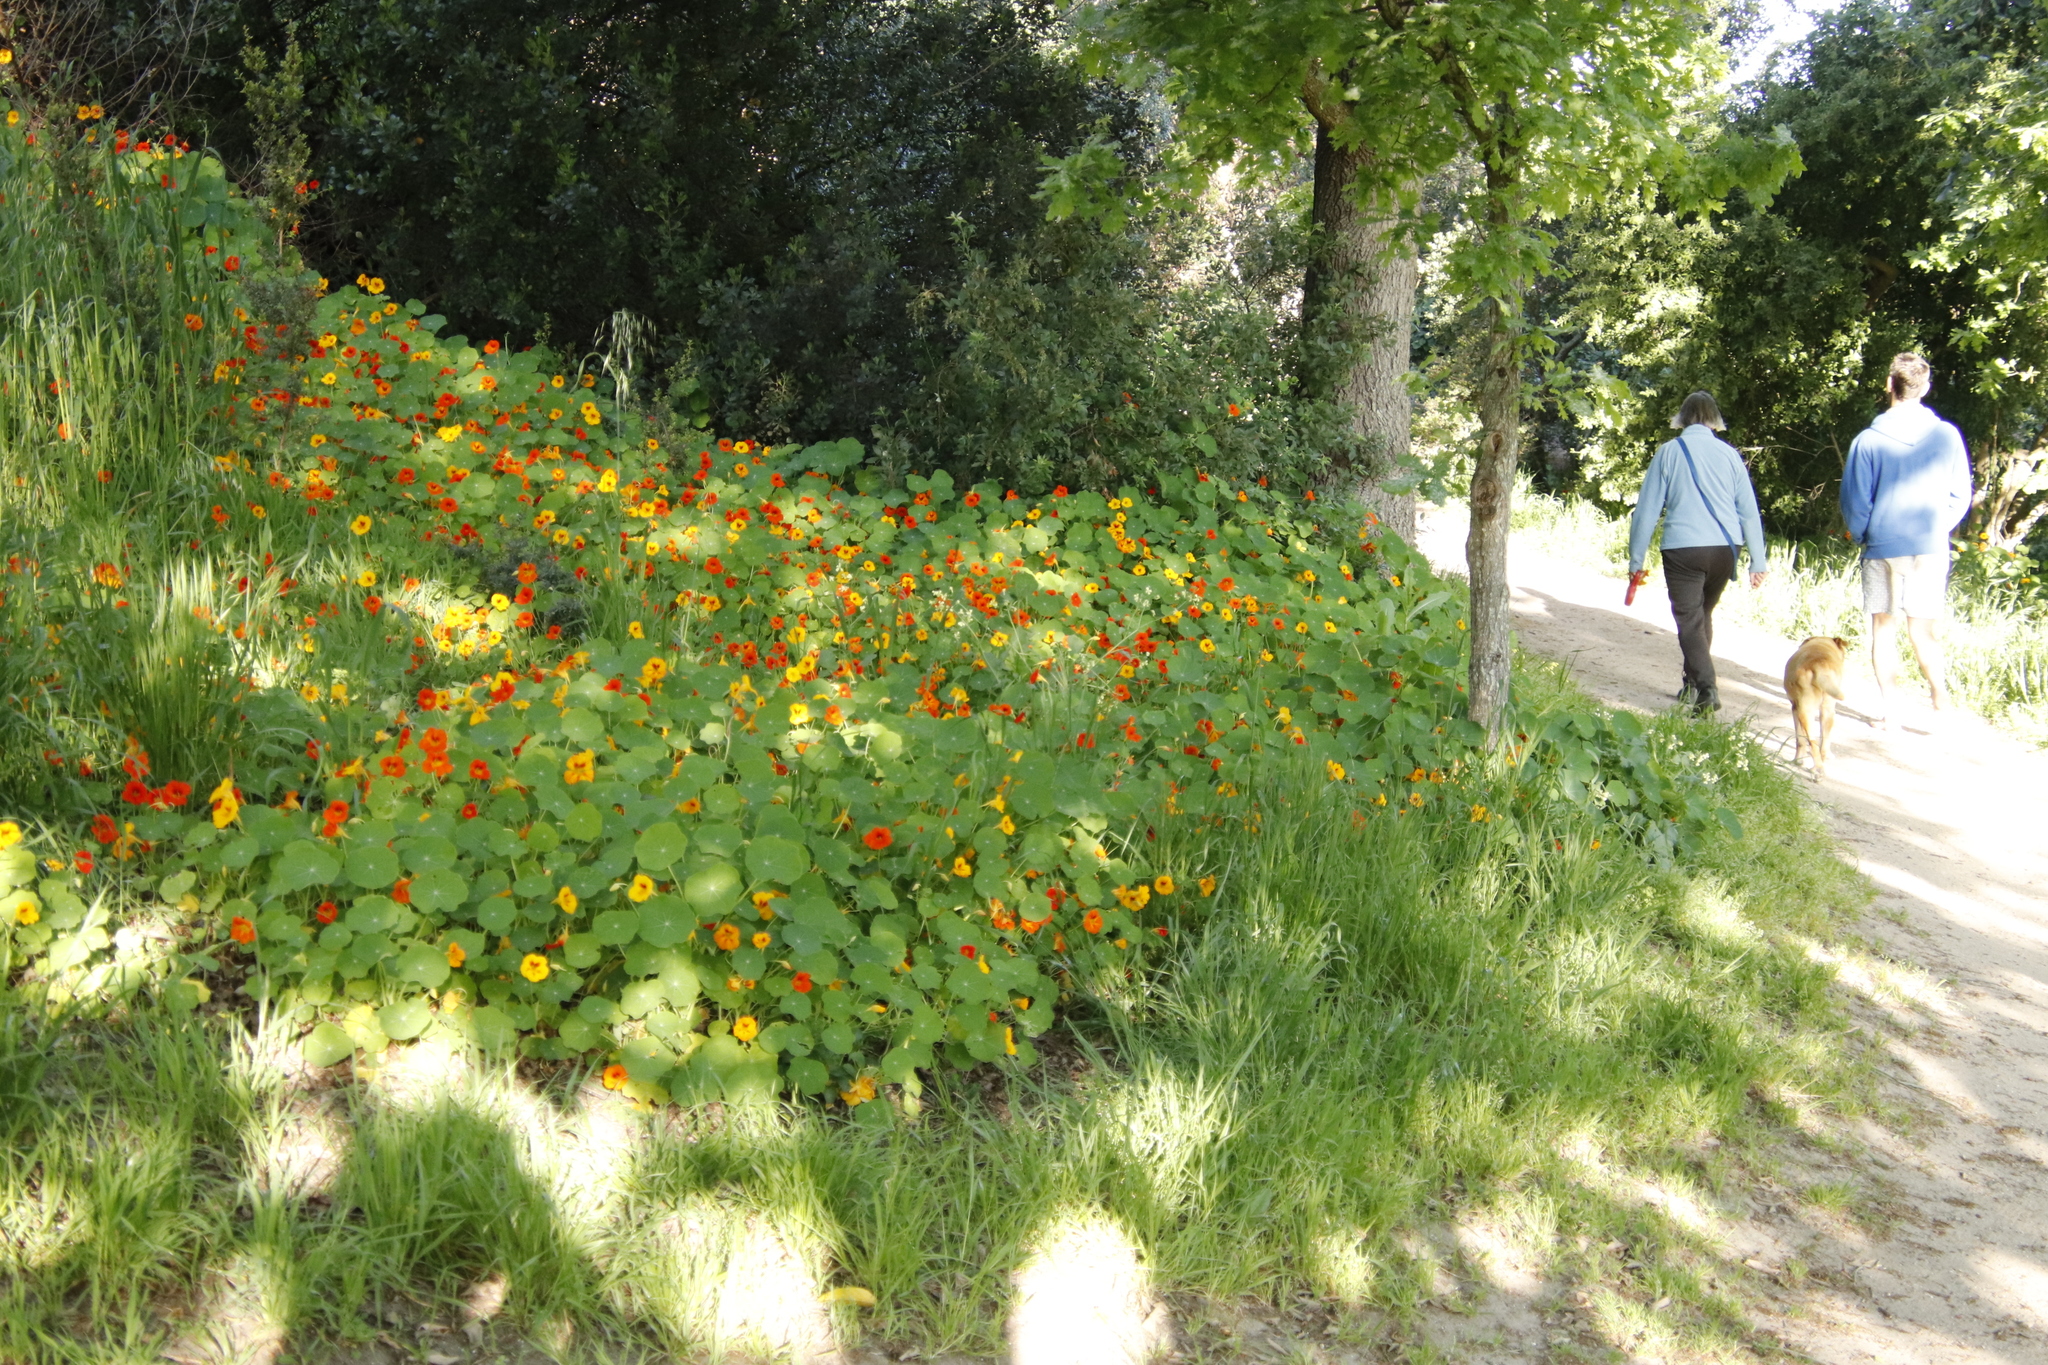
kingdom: Plantae
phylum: Tracheophyta
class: Magnoliopsida
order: Brassicales
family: Tropaeolaceae
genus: Tropaeolum
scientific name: Tropaeolum majus
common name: Nasturtium
